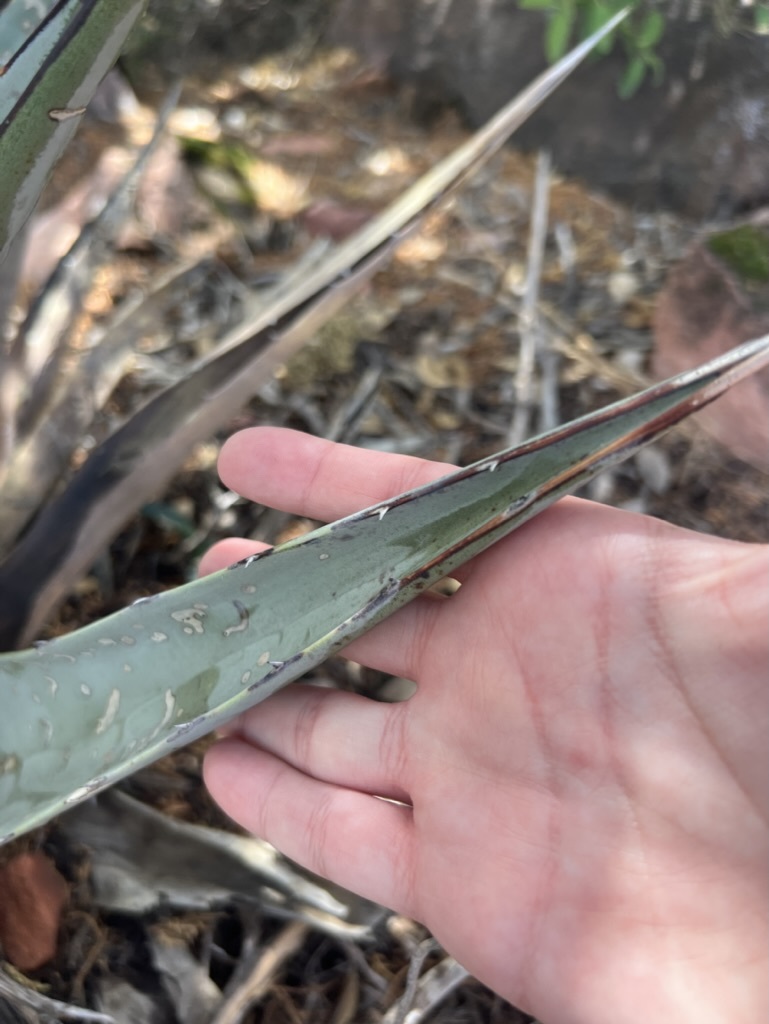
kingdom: Plantae
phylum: Tracheophyta
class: Liliopsida
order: Asparagales
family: Asparagaceae
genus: Agave
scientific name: Agave chrysantha
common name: Golden-flowered agave
